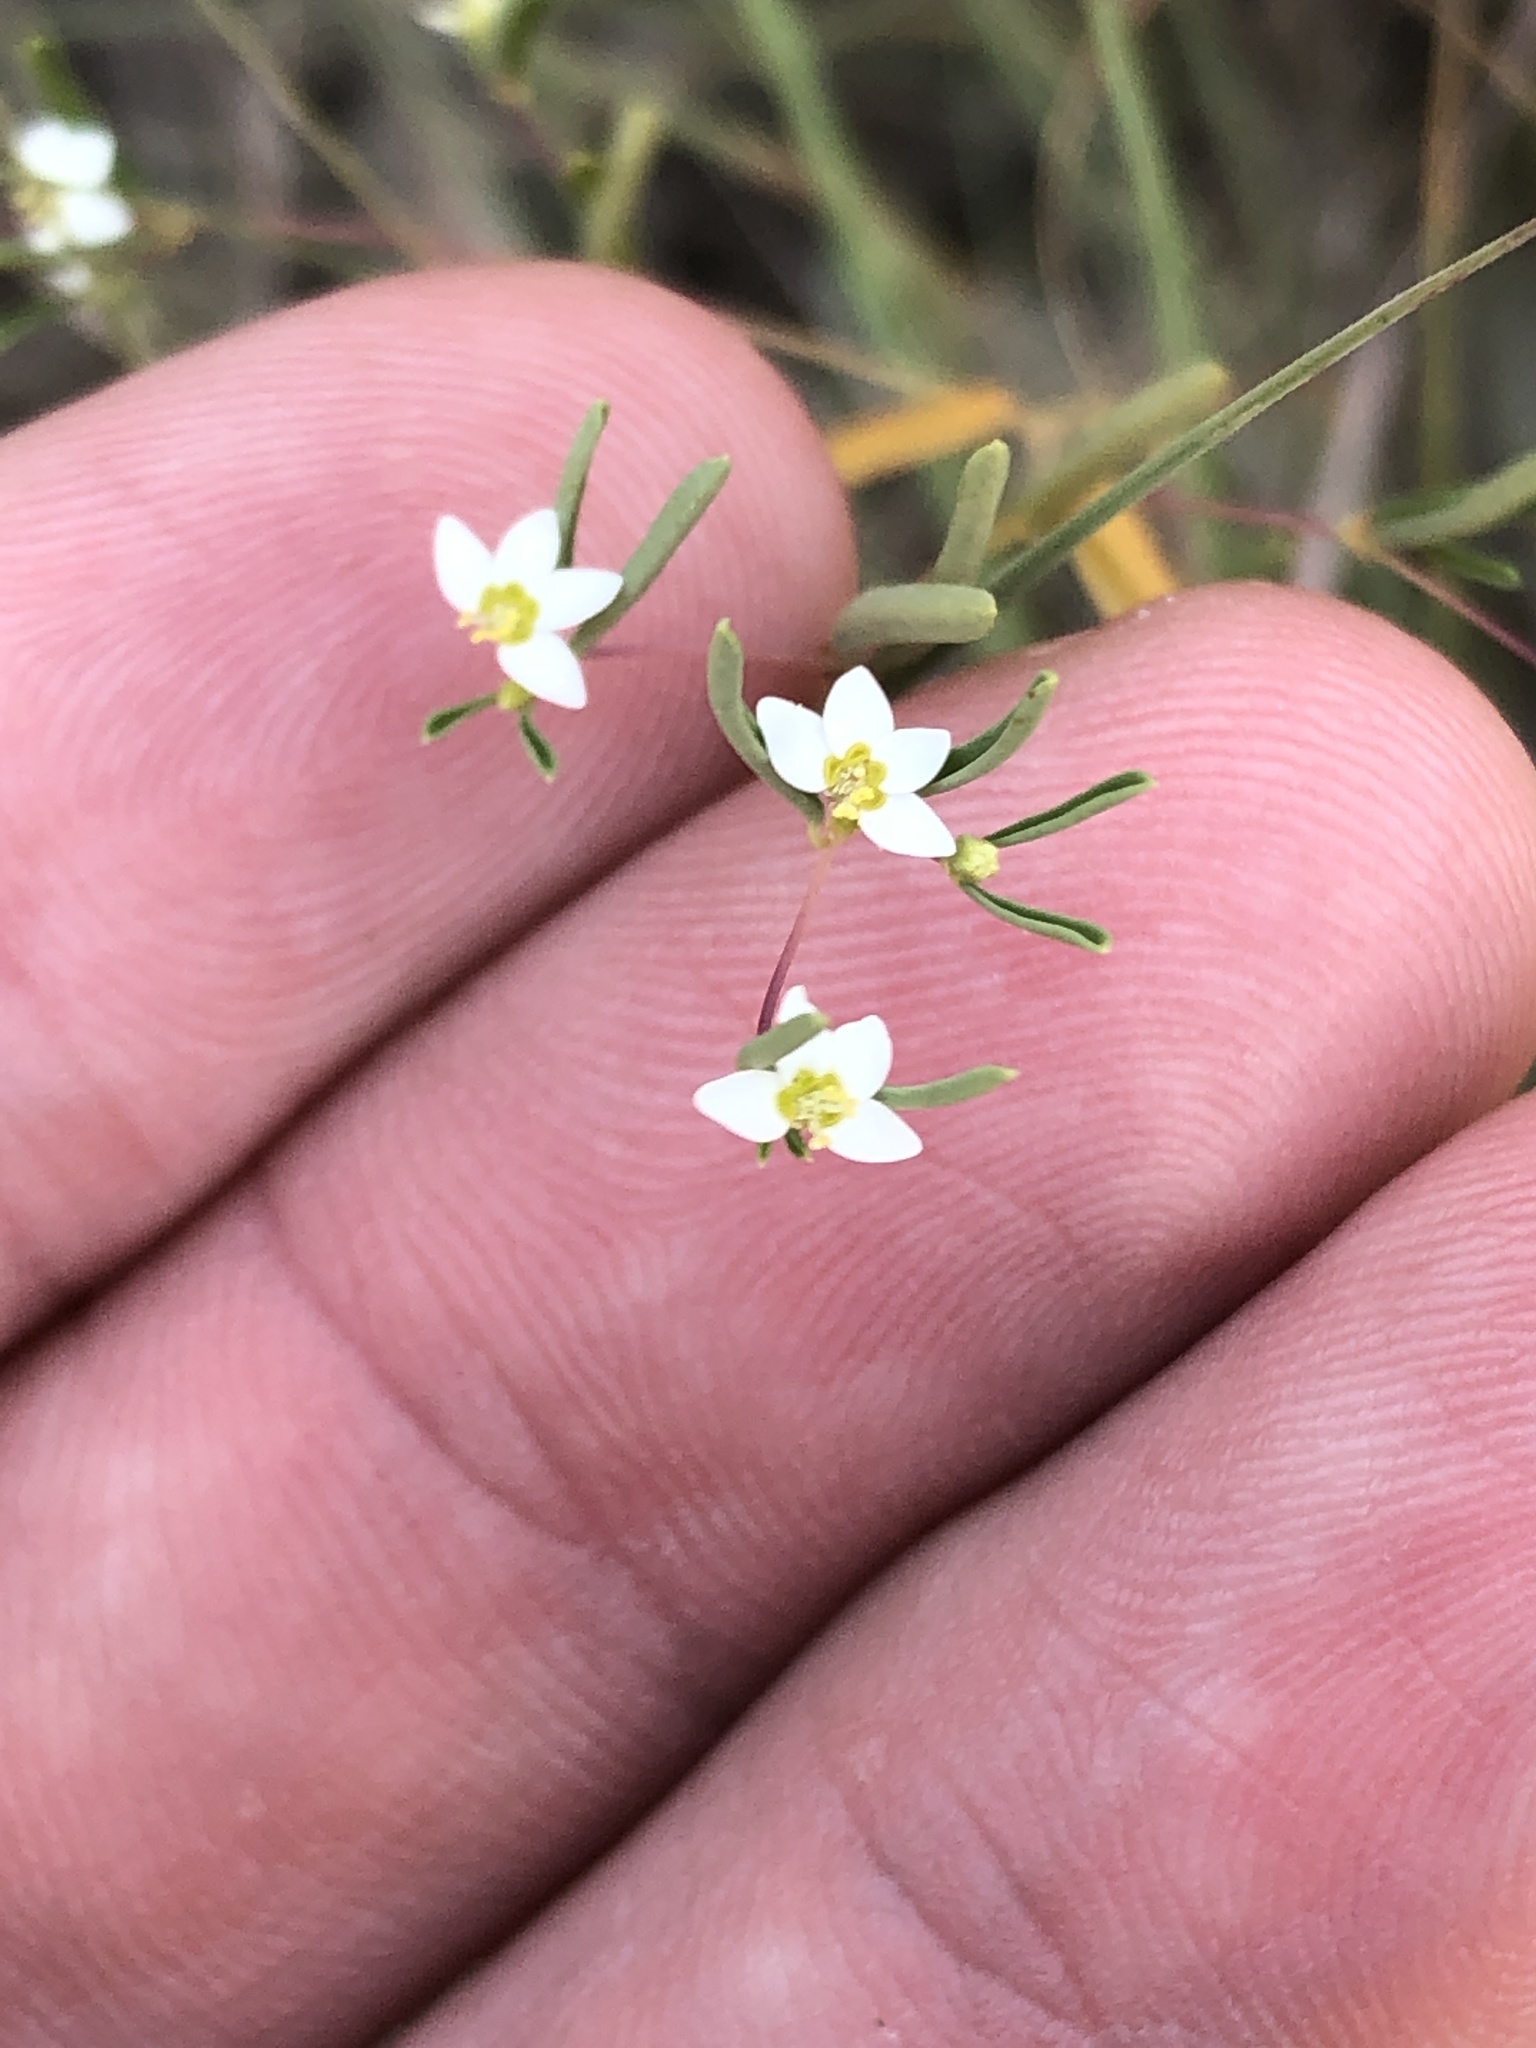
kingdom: Plantae
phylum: Tracheophyta
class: Magnoliopsida
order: Malpighiales
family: Euphorbiaceae
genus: Euphorbia
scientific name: Euphorbia missurica
